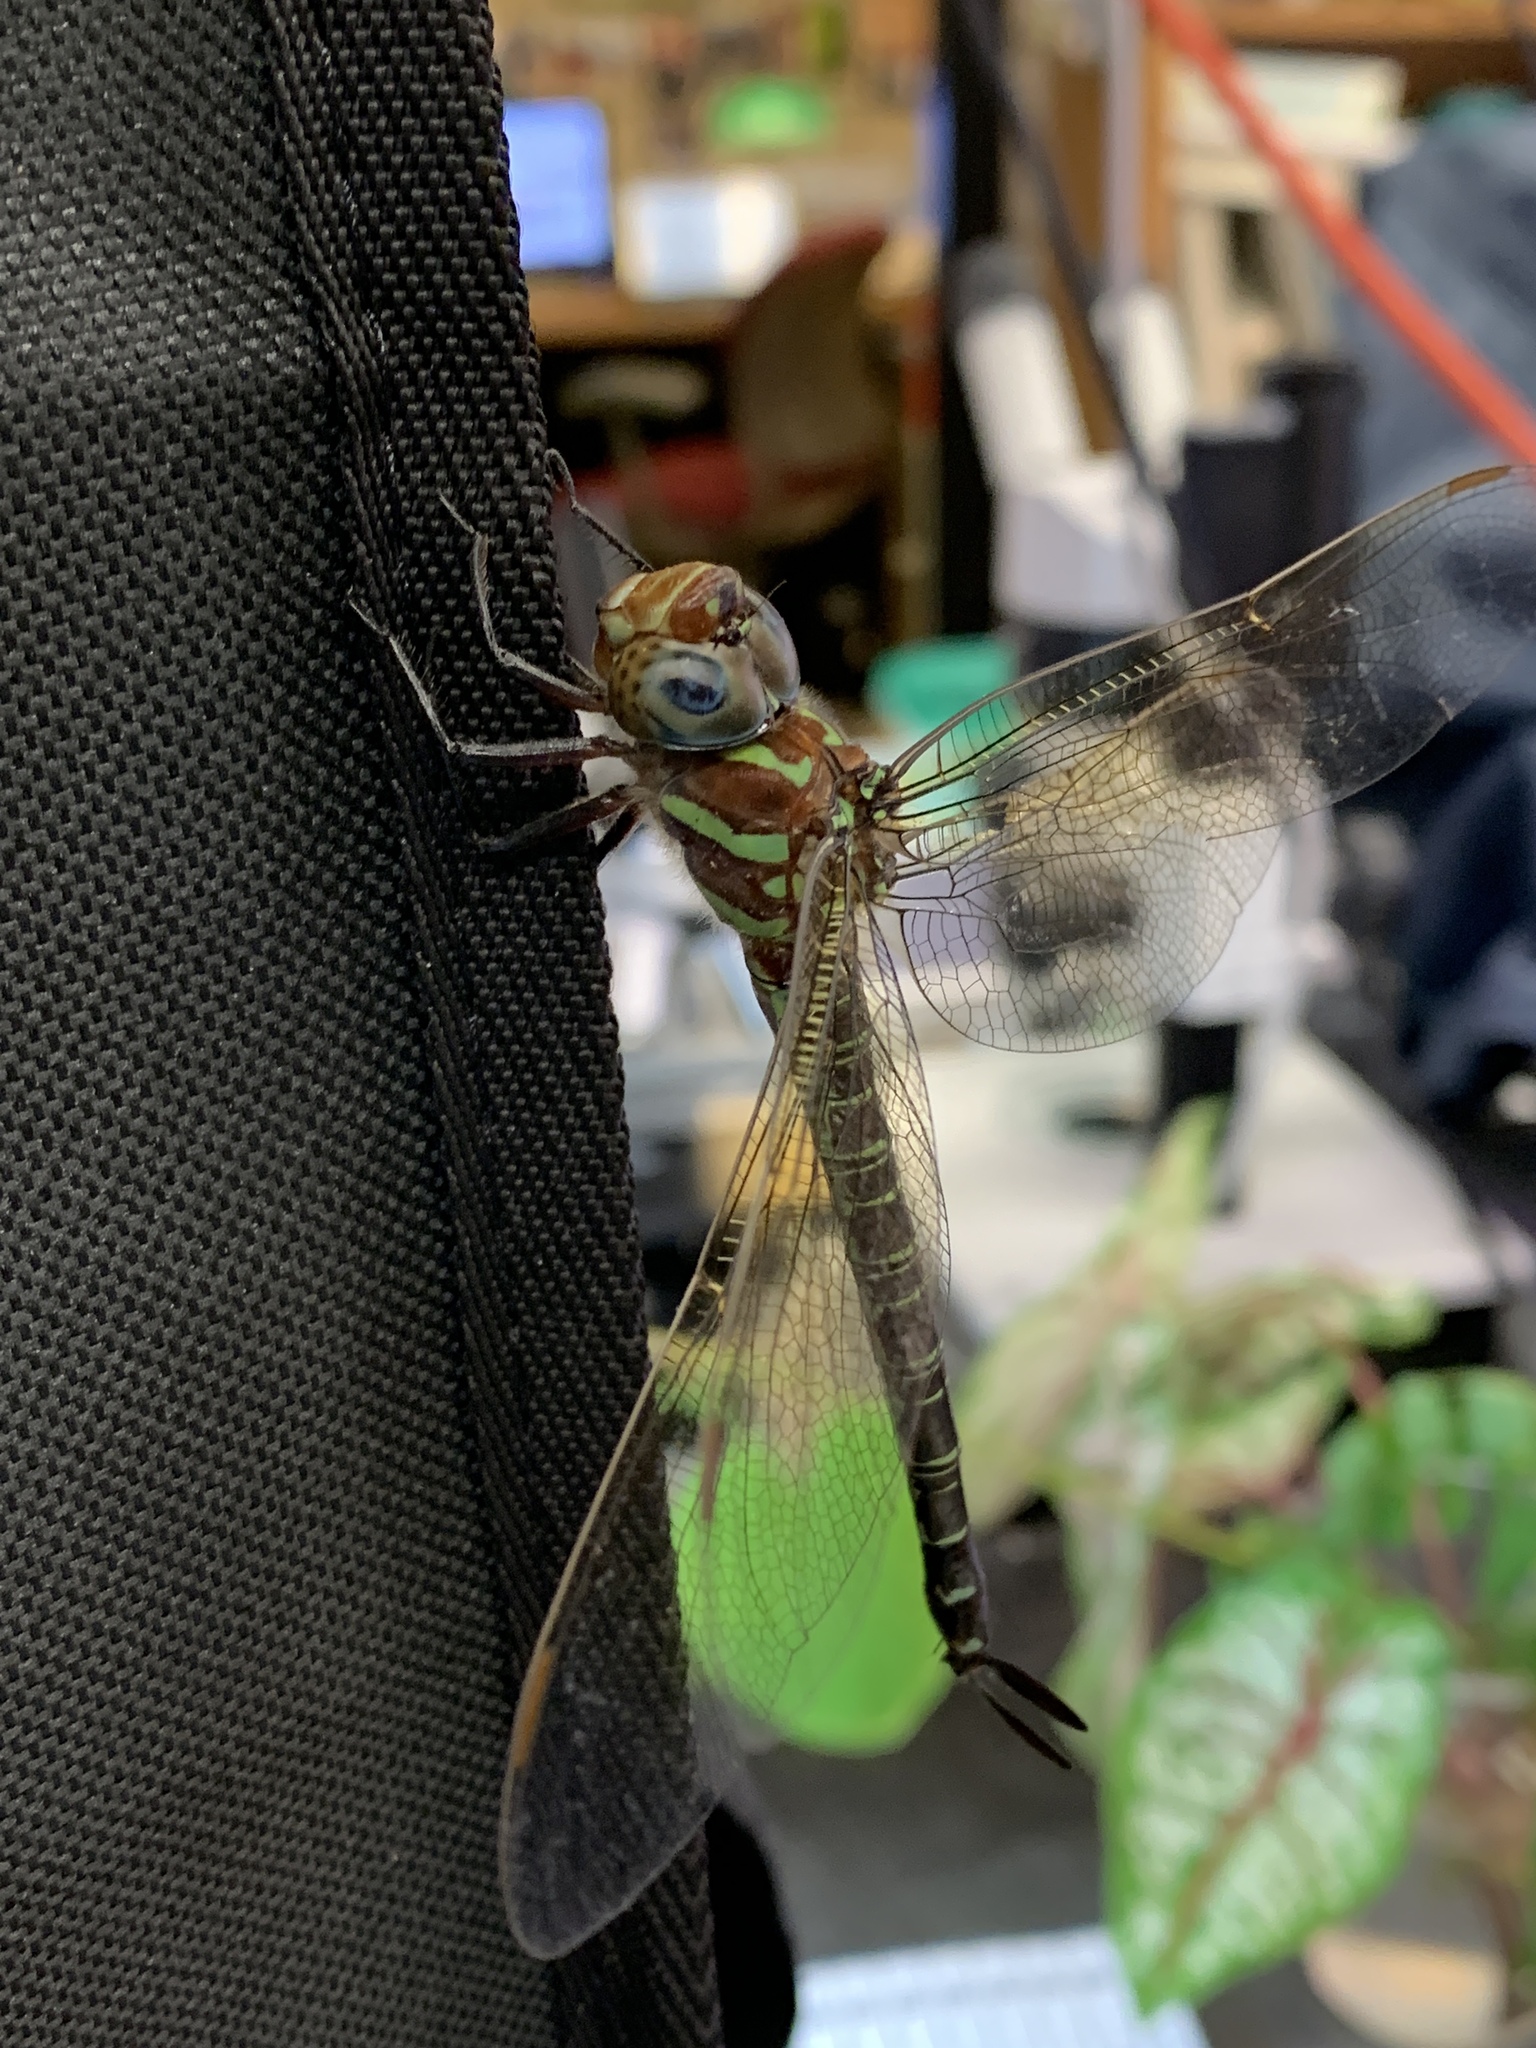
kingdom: Animalia
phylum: Arthropoda
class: Insecta
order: Odonata
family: Aeshnidae
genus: Epiaeschna
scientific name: Epiaeschna heros
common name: Swamp darner
